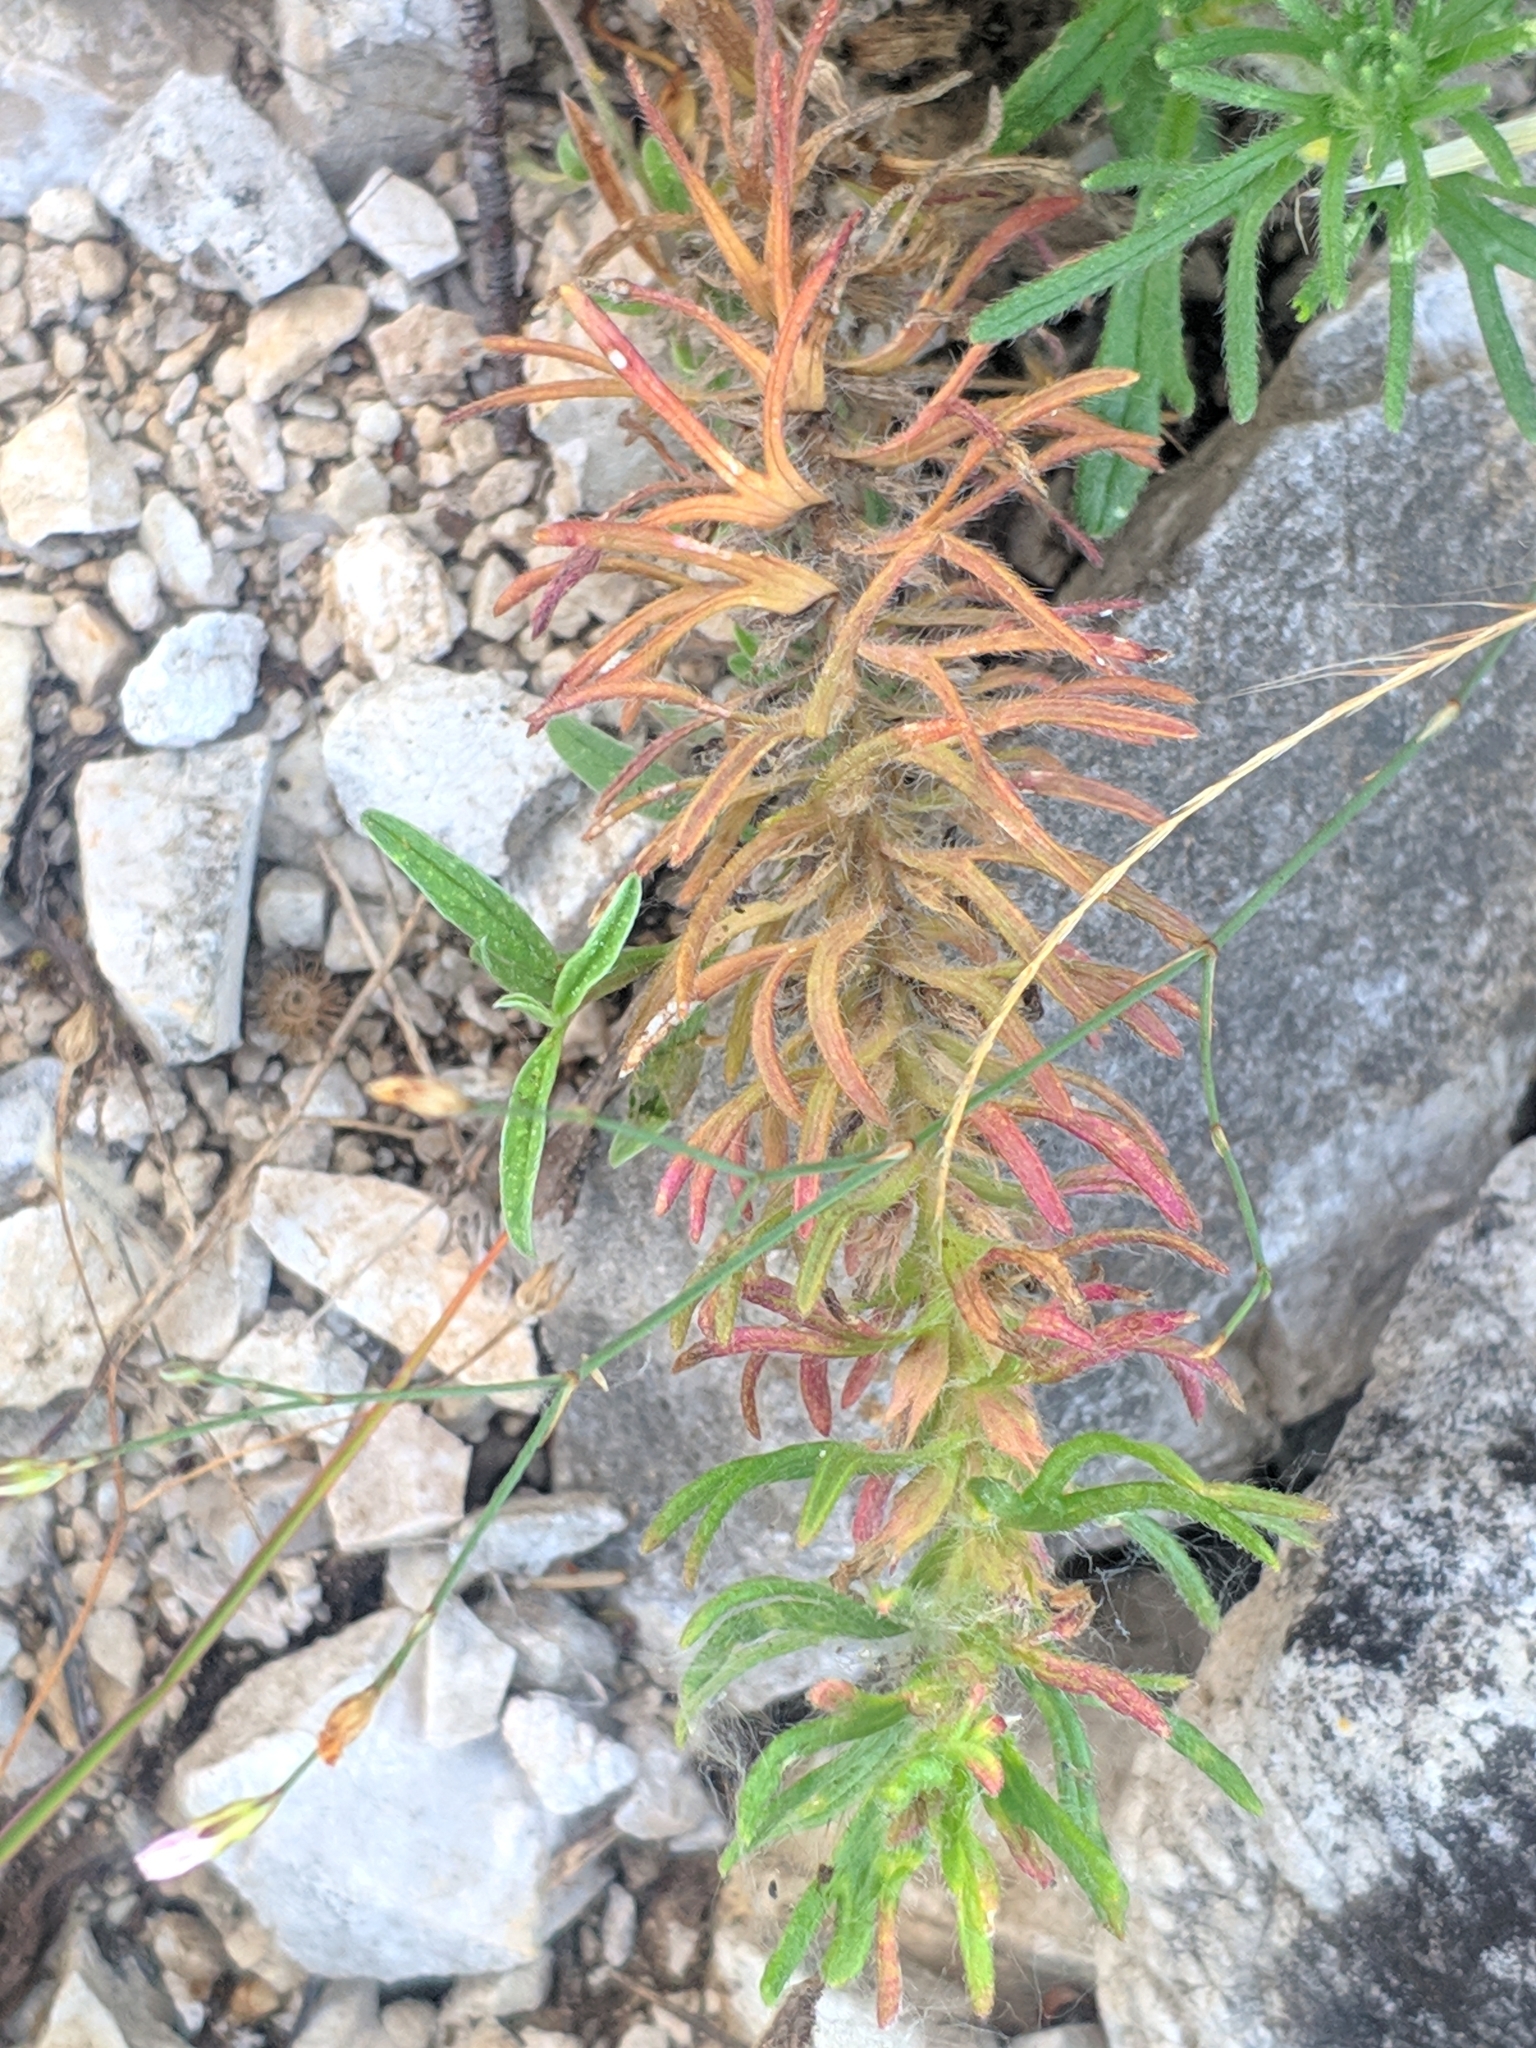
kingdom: Plantae
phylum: Tracheophyta
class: Magnoliopsida
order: Lamiales
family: Lamiaceae
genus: Ajuga
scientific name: Ajuga chamaepitys
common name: Ground-pine
